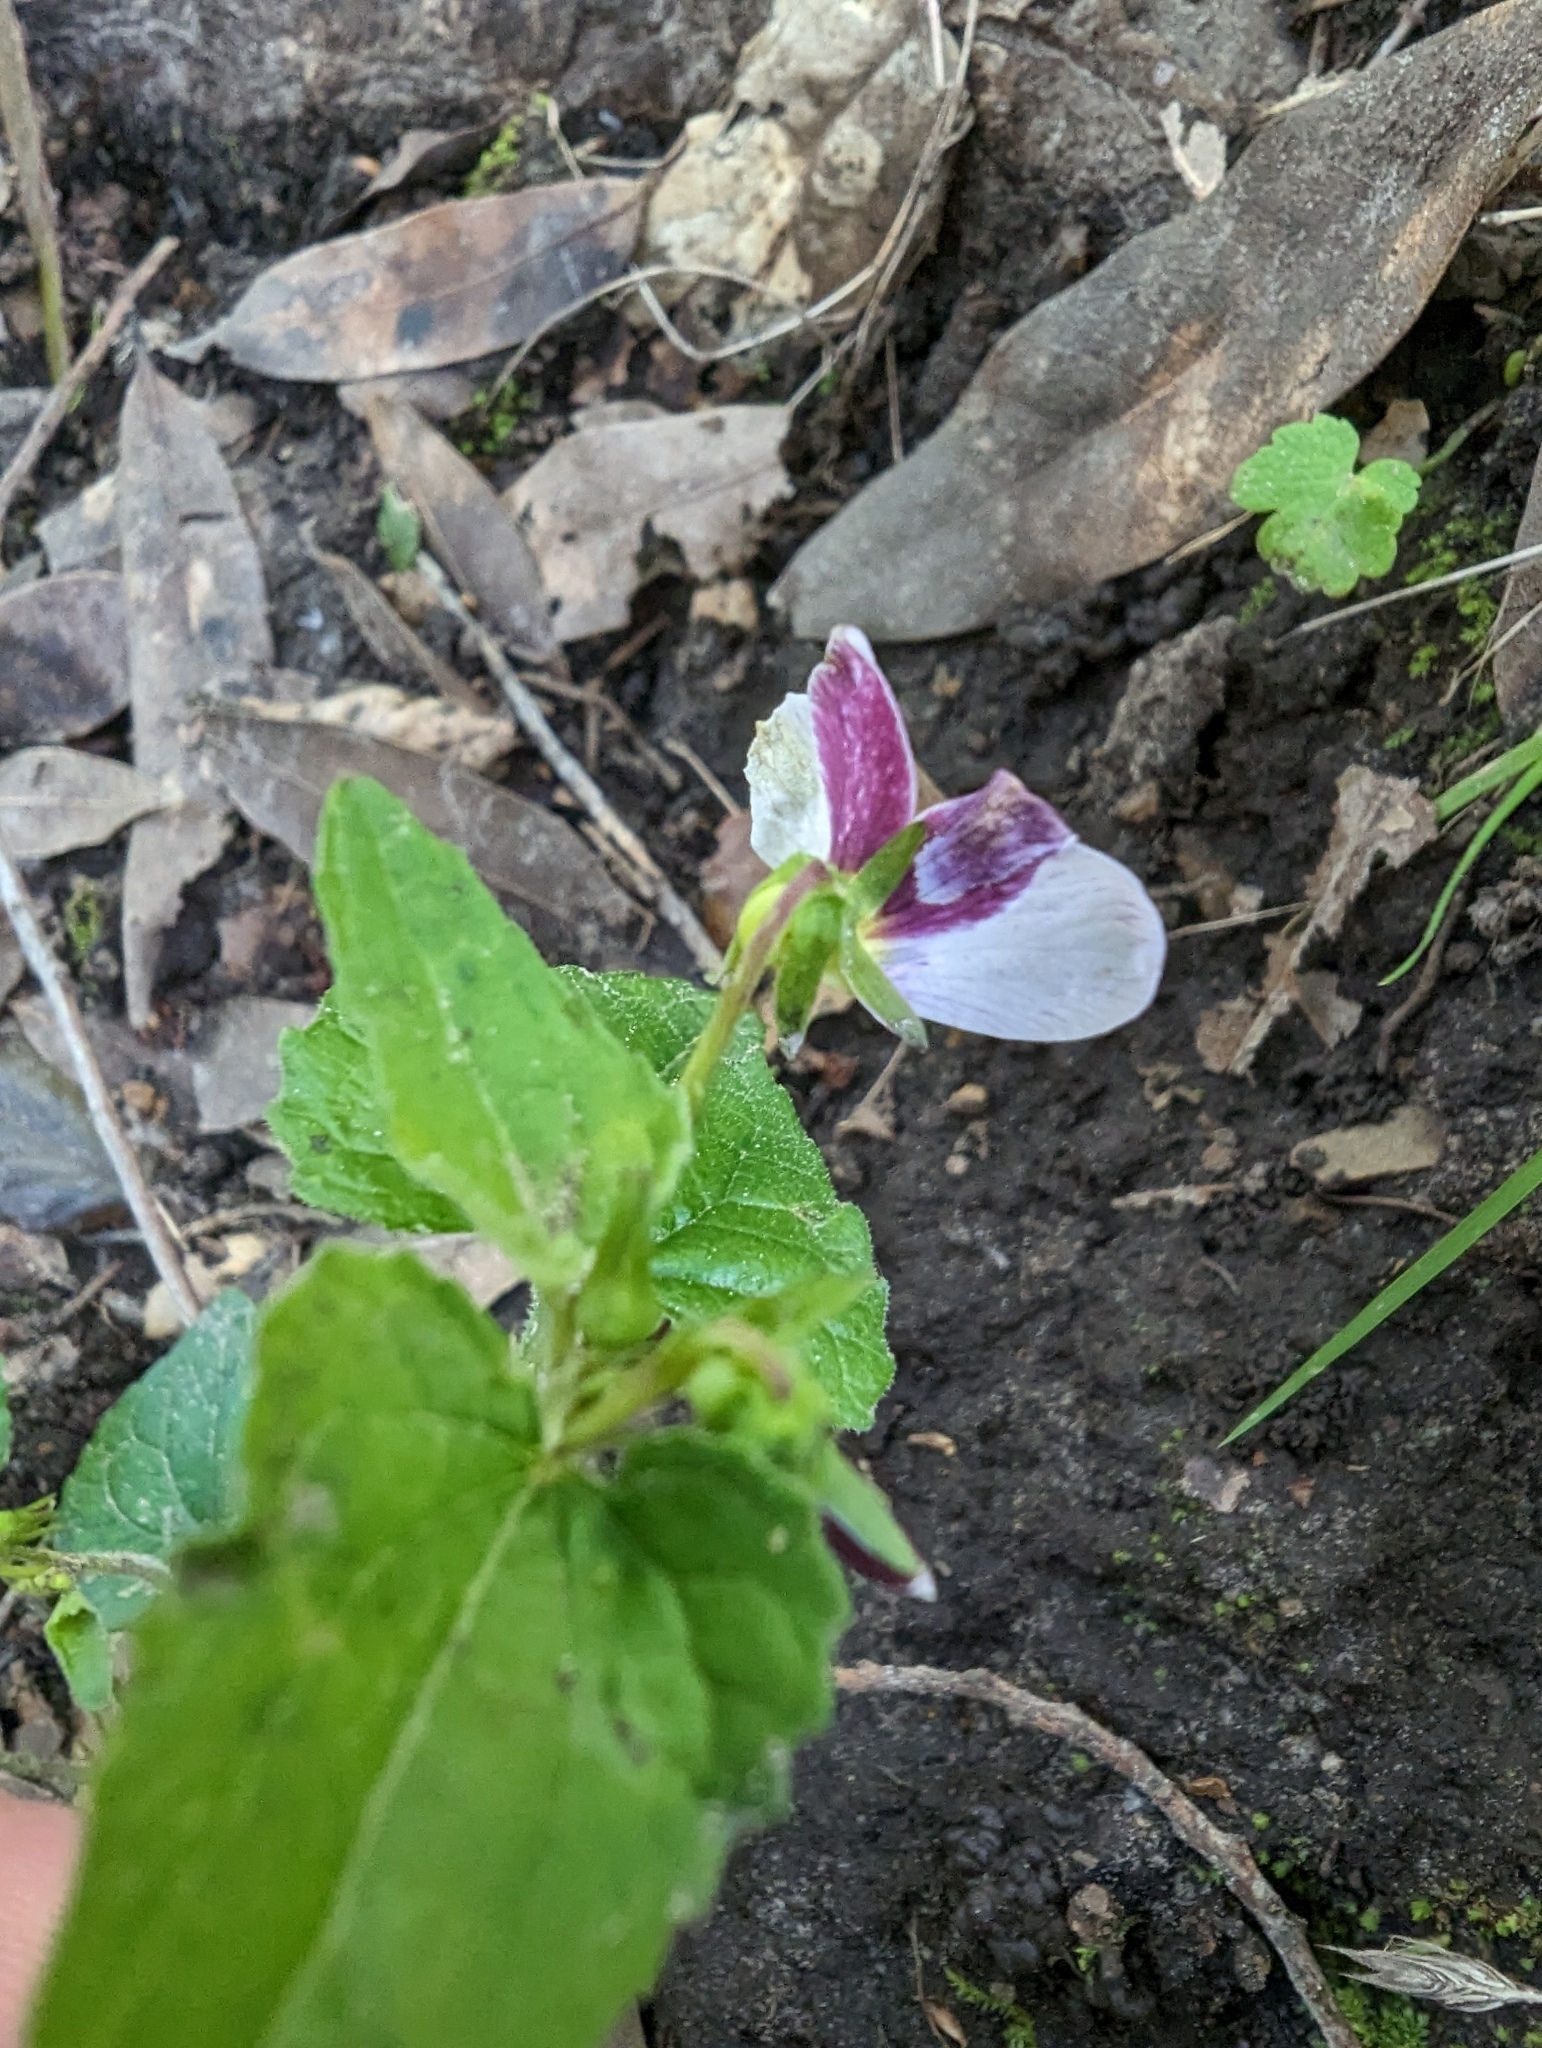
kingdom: Plantae
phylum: Tracheophyta
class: Magnoliopsida
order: Malpighiales
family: Violaceae
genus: Viola
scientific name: Viola ocellata
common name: Western heart's ease
